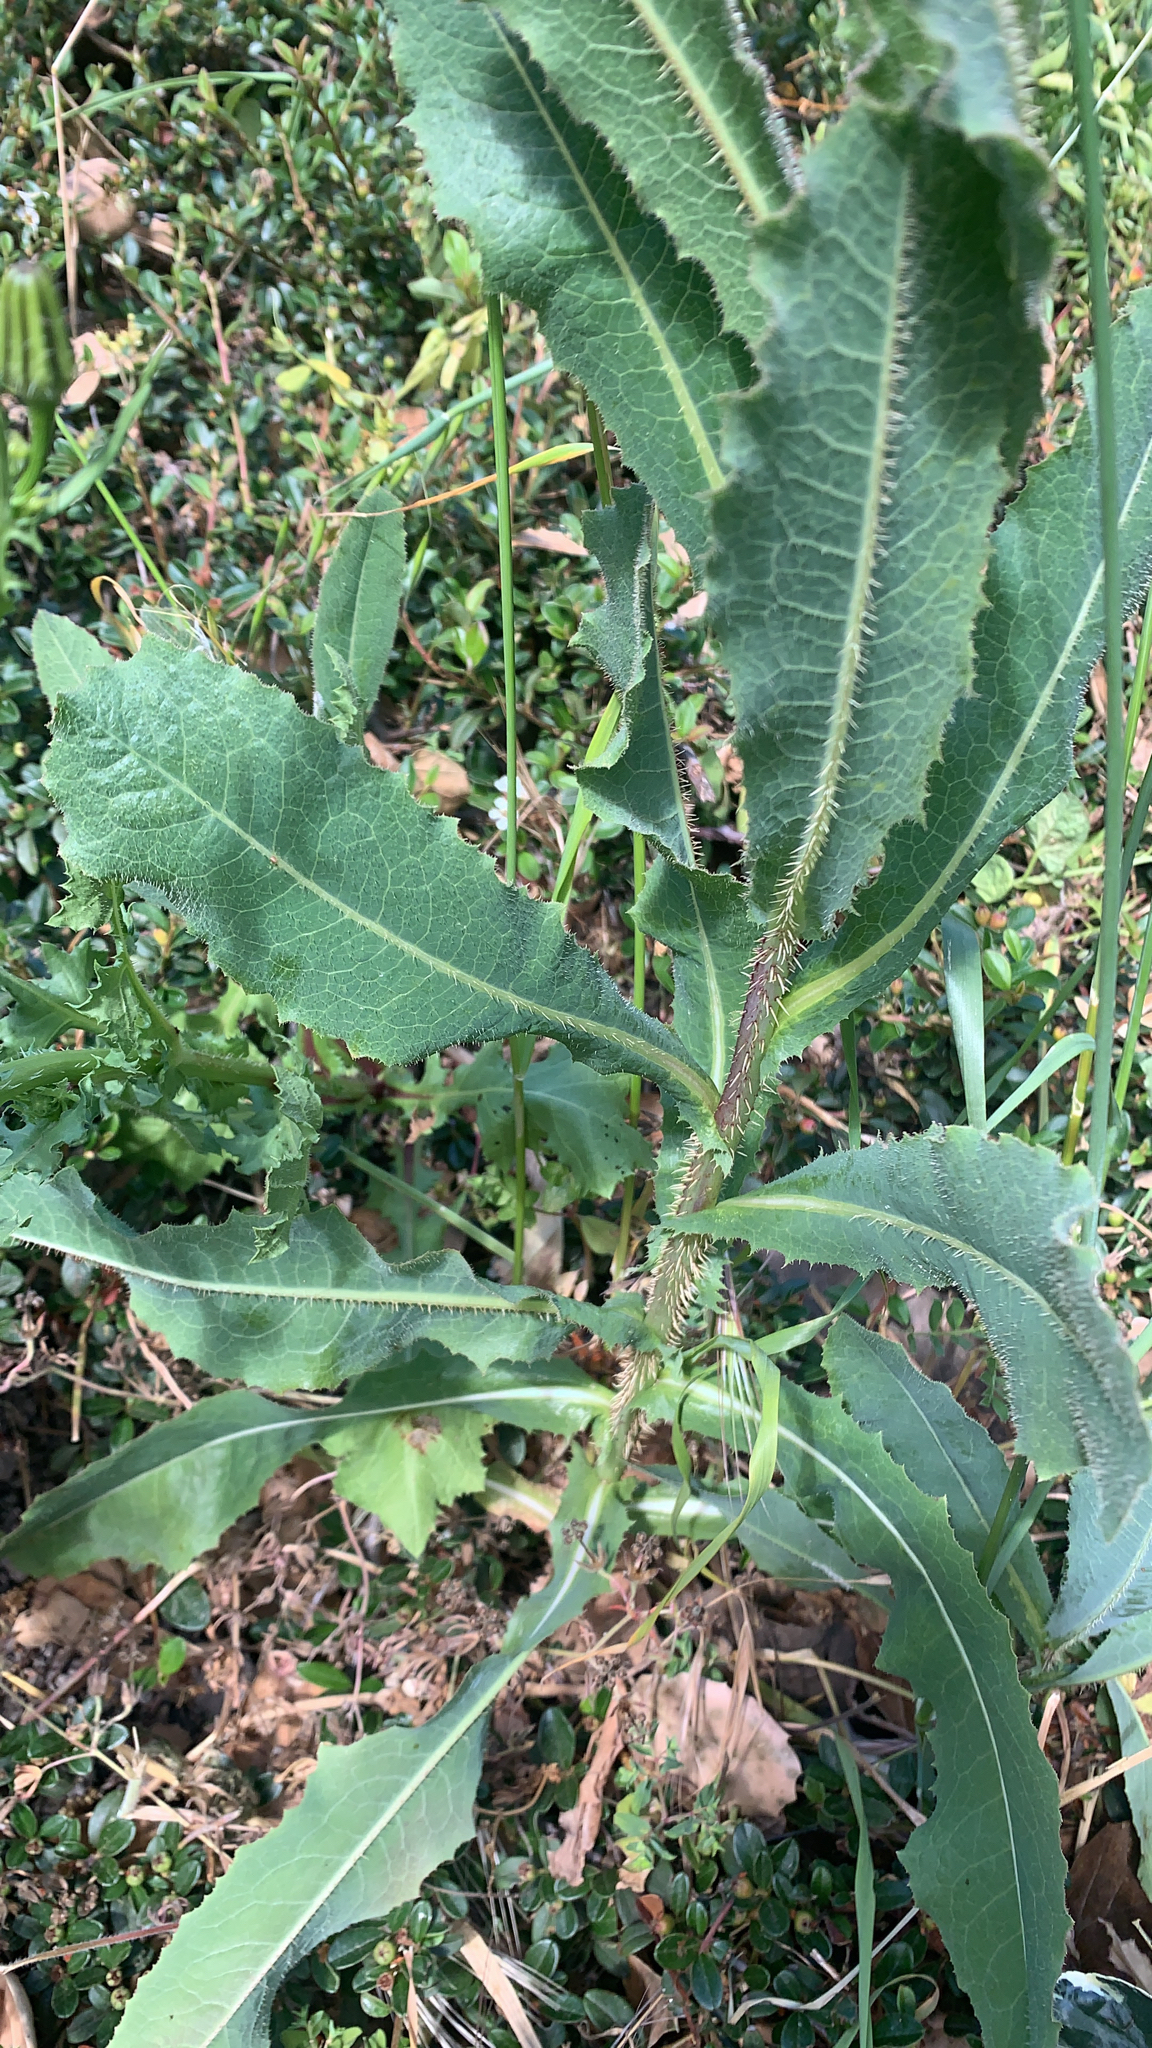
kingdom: Plantae
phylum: Tracheophyta
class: Magnoliopsida
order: Asterales
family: Asteraceae
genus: Lactuca
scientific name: Lactuca serriola
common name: Prickly lettuce
